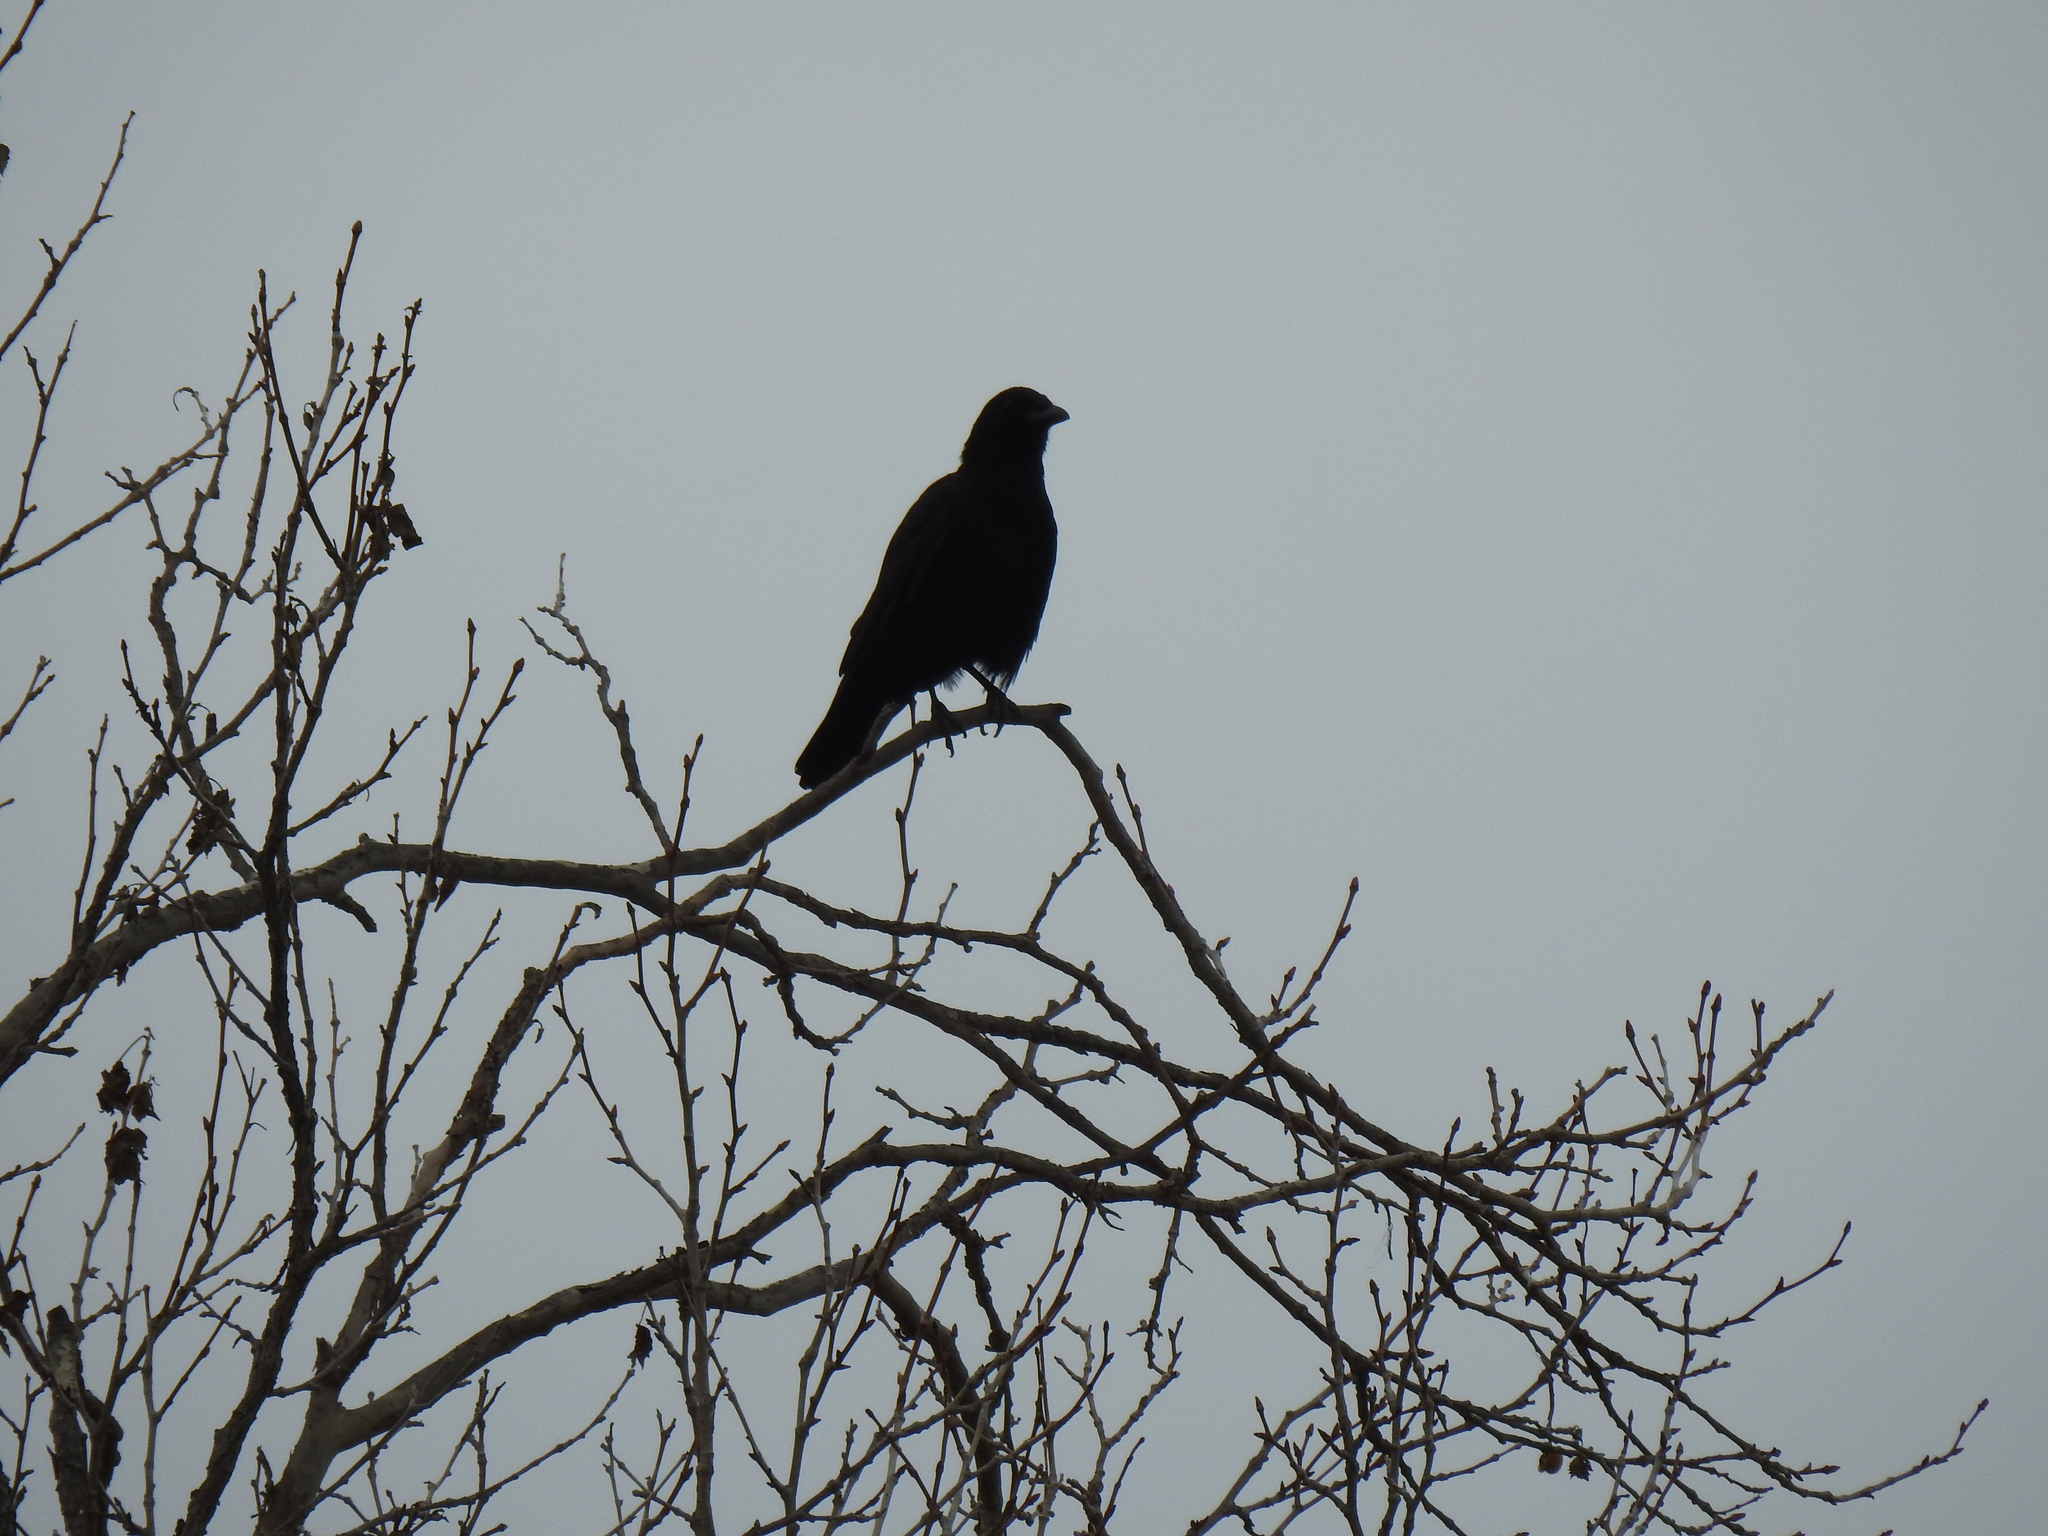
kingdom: Animalia
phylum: Chordata
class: Aves
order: Passeriformes
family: Corvidae
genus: Corvus
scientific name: Corvus brachyrhynchos
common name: American crow
